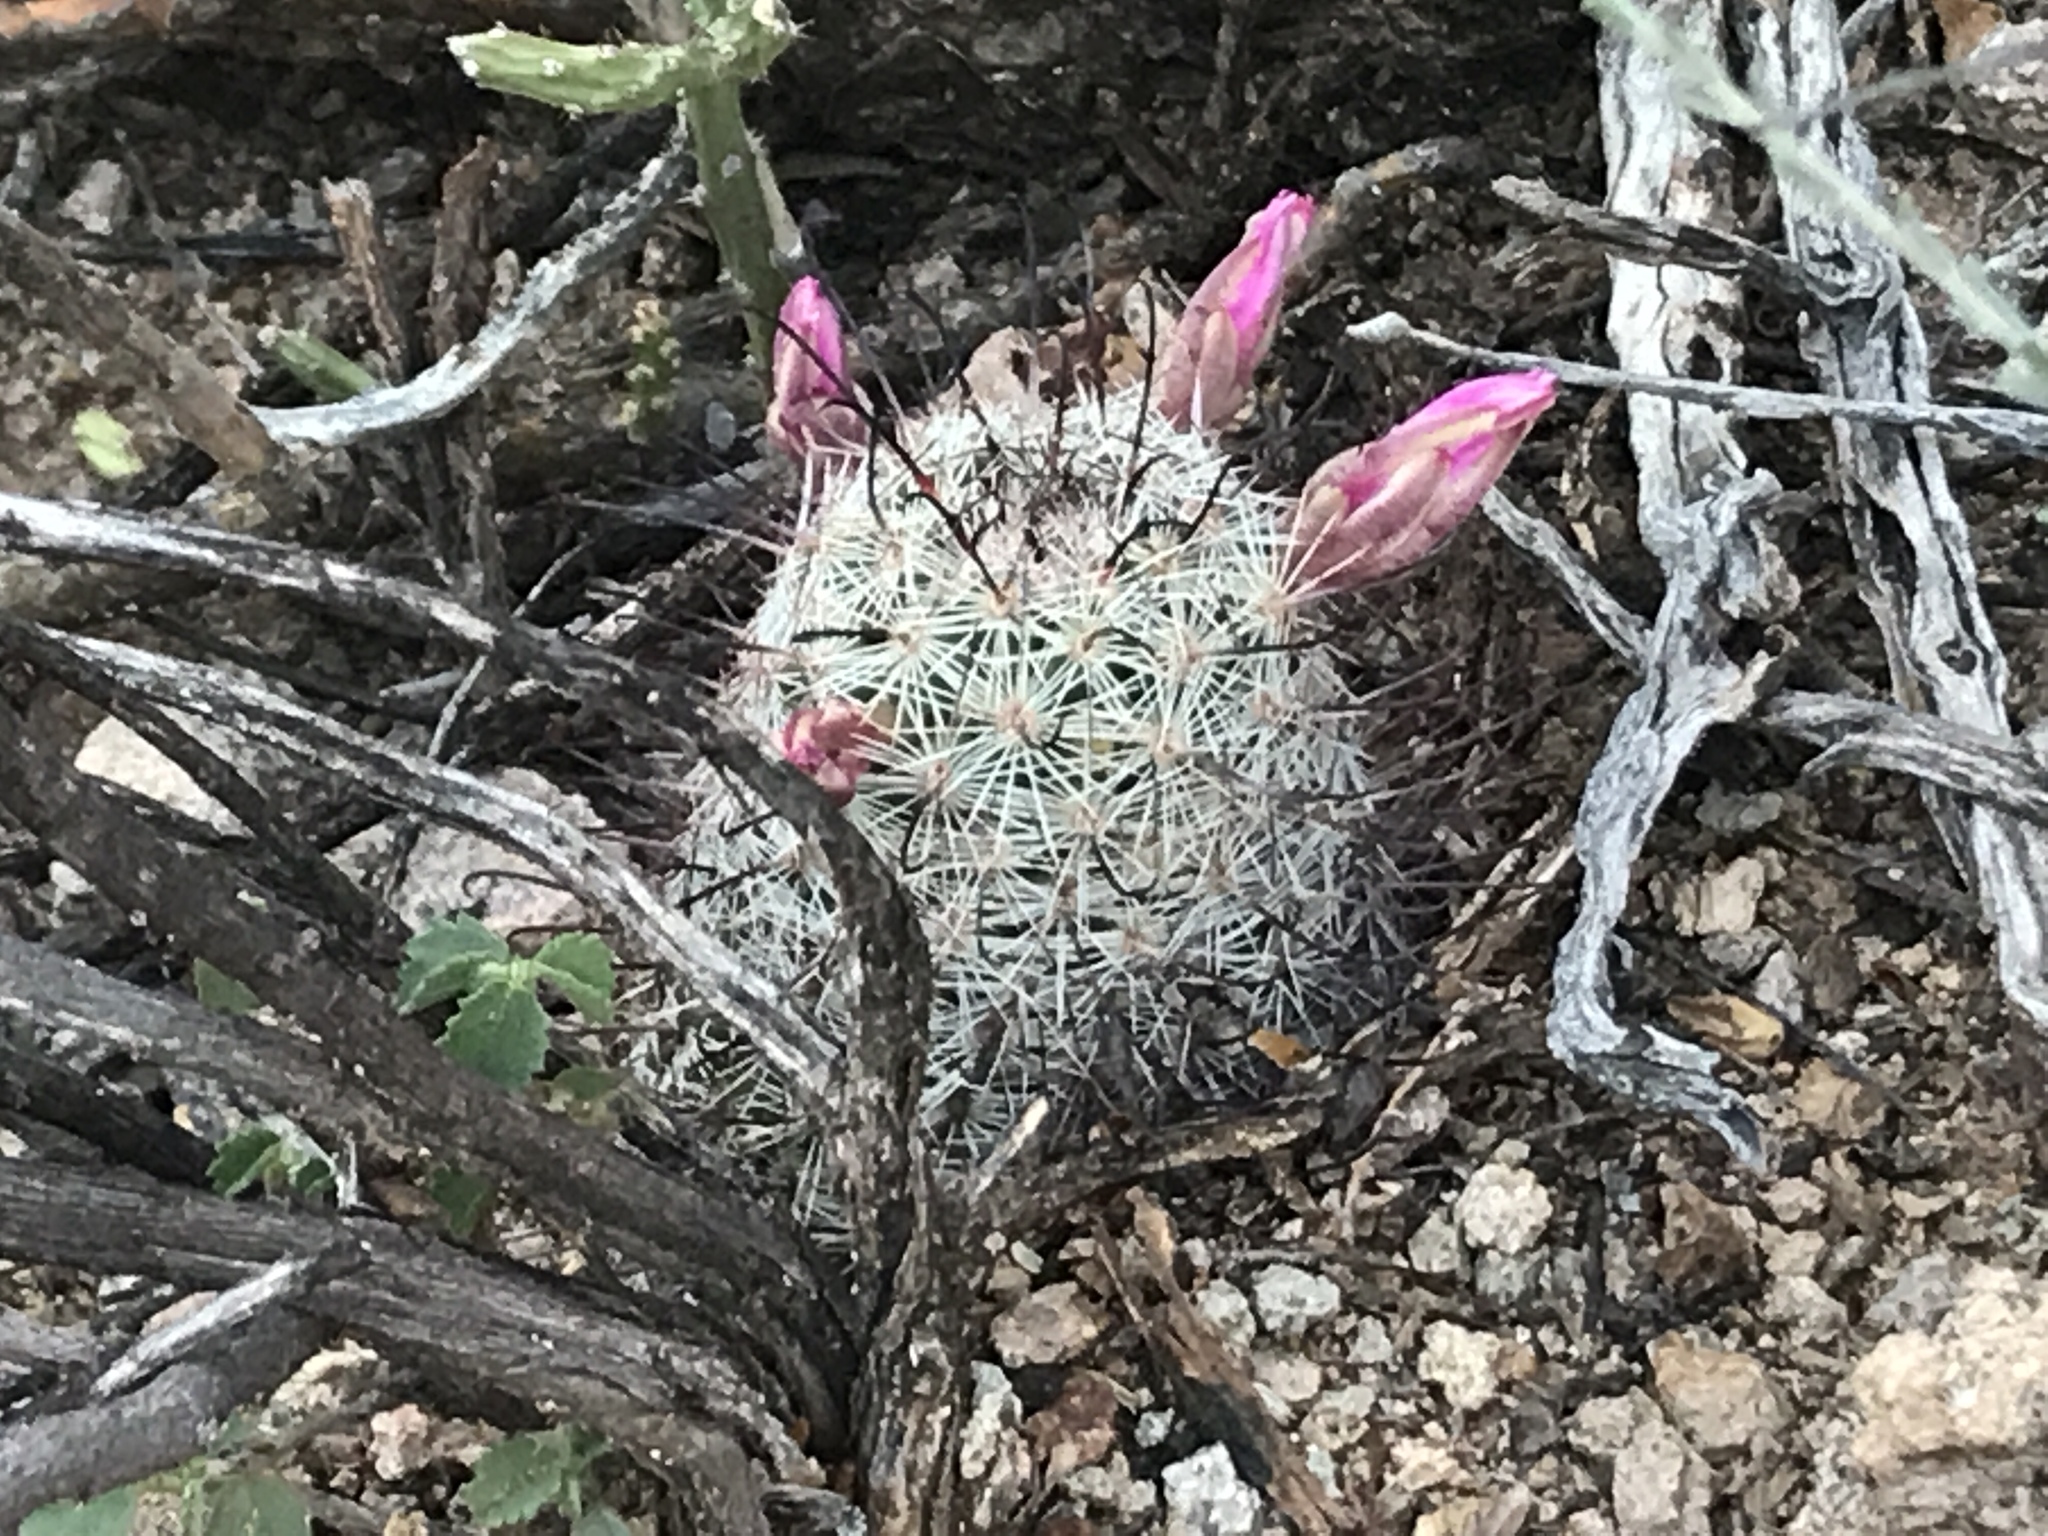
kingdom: Plantae
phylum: Tracheophyta
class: Magnoliopsida
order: Caryophyllales
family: Cactaceae
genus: Cochemiea
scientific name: Cochemiea grahamii
